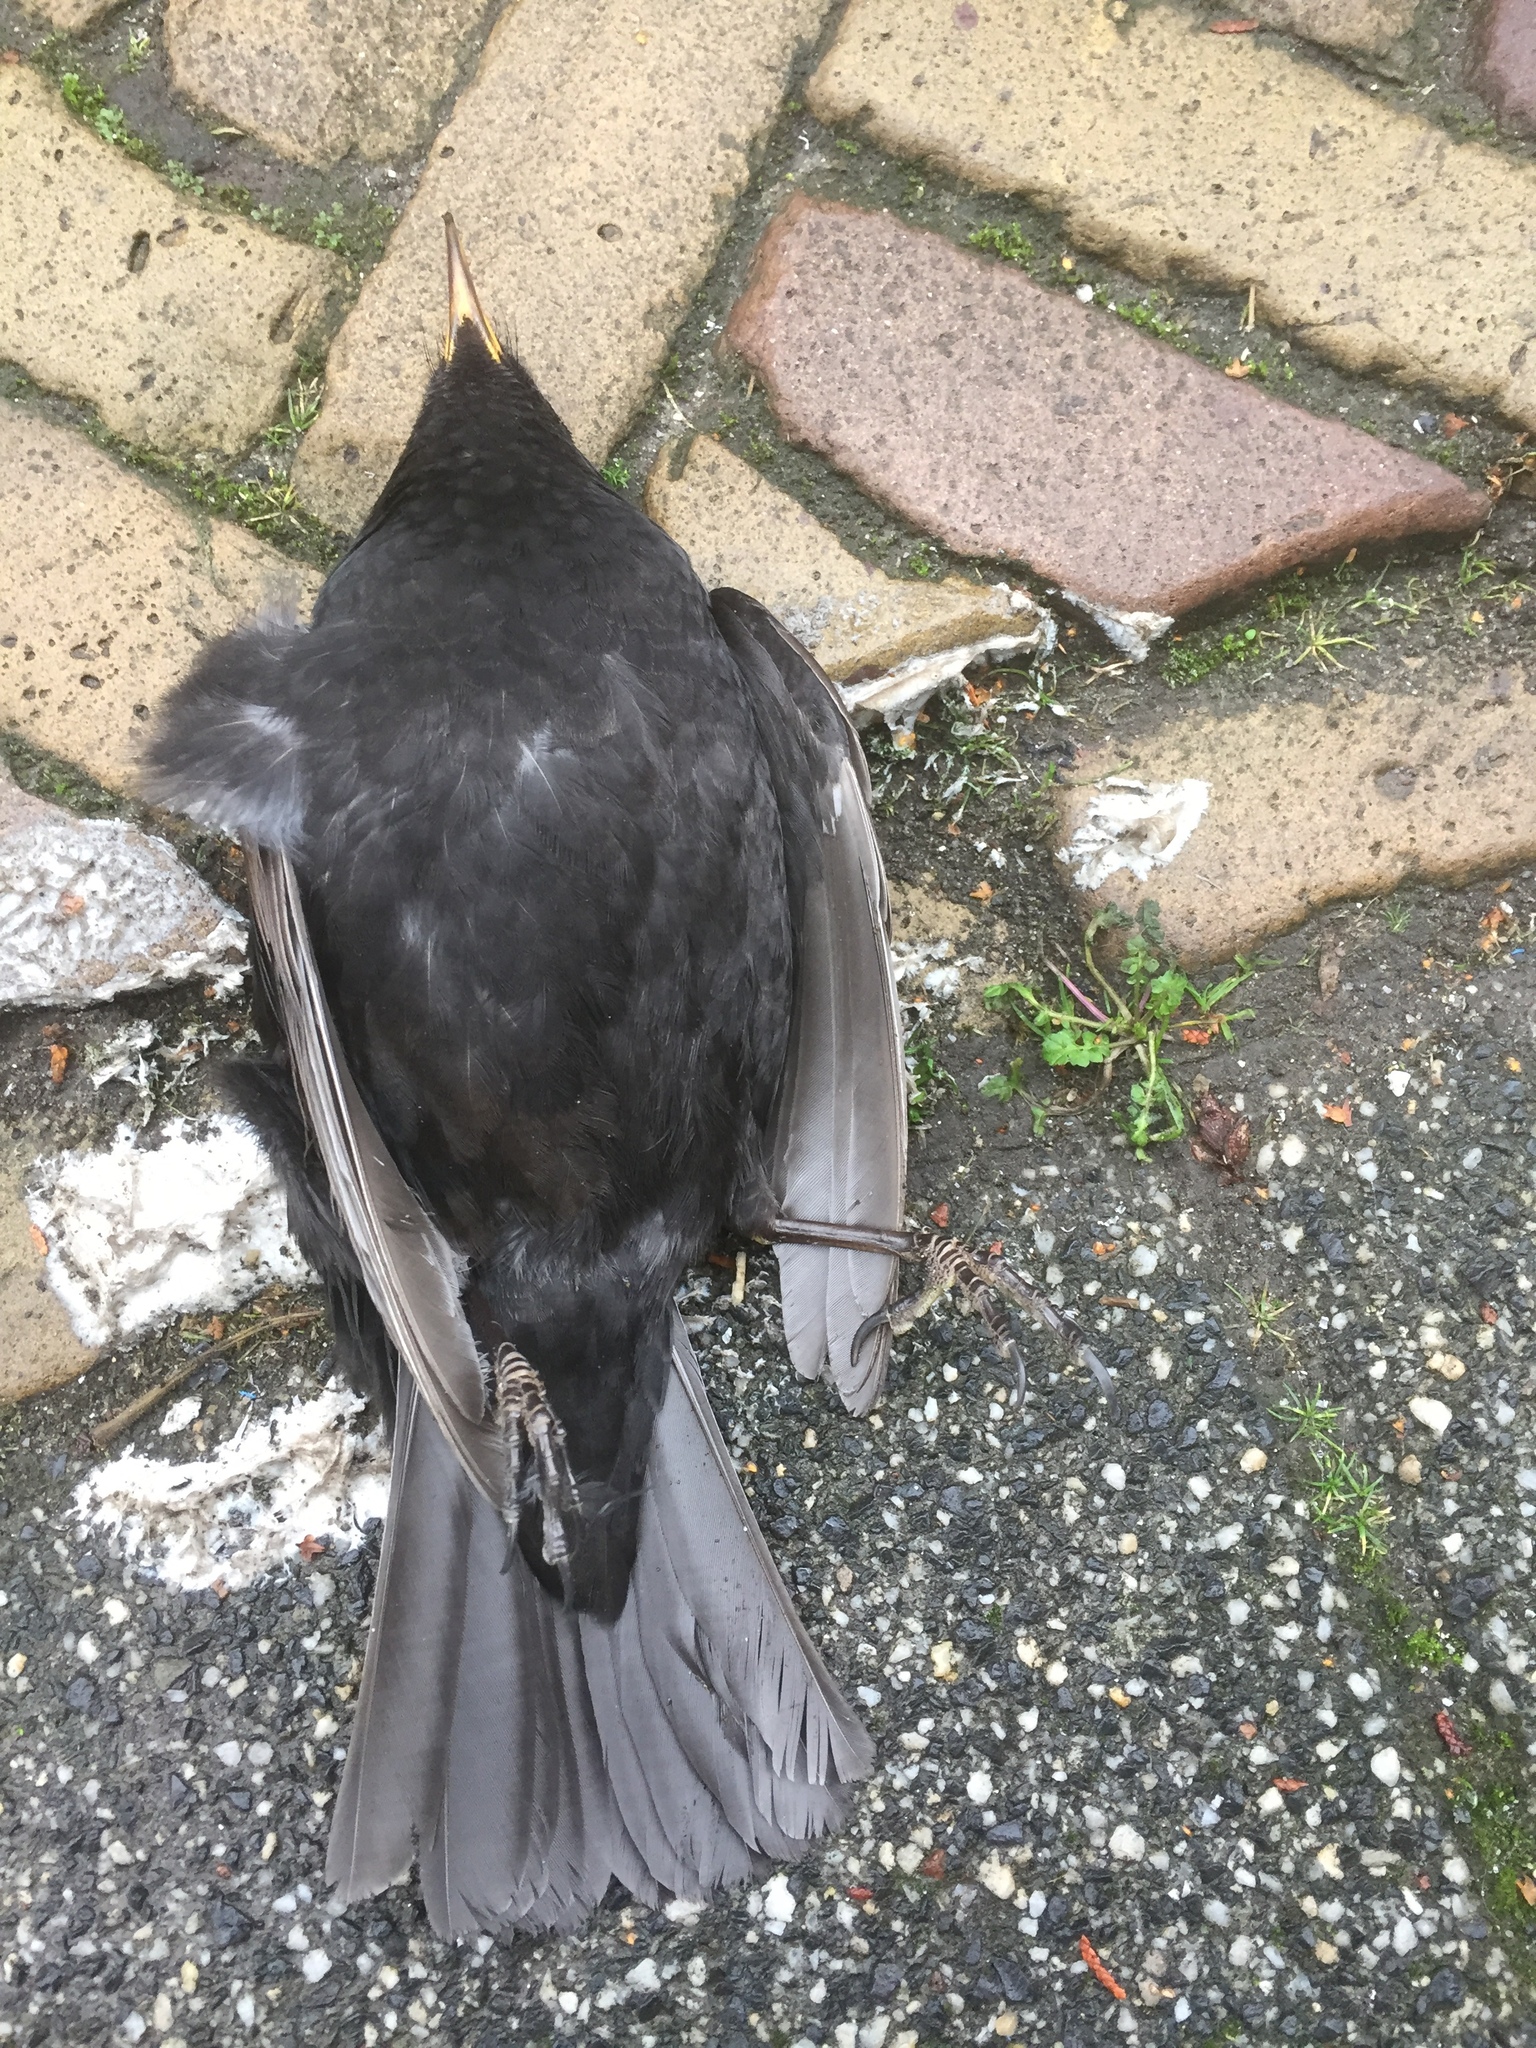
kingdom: Animalia
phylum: Chordata
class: Aves
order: Passeriformes
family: Turdidae
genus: Turdus
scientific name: Turdus merula
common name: Common blackbird
